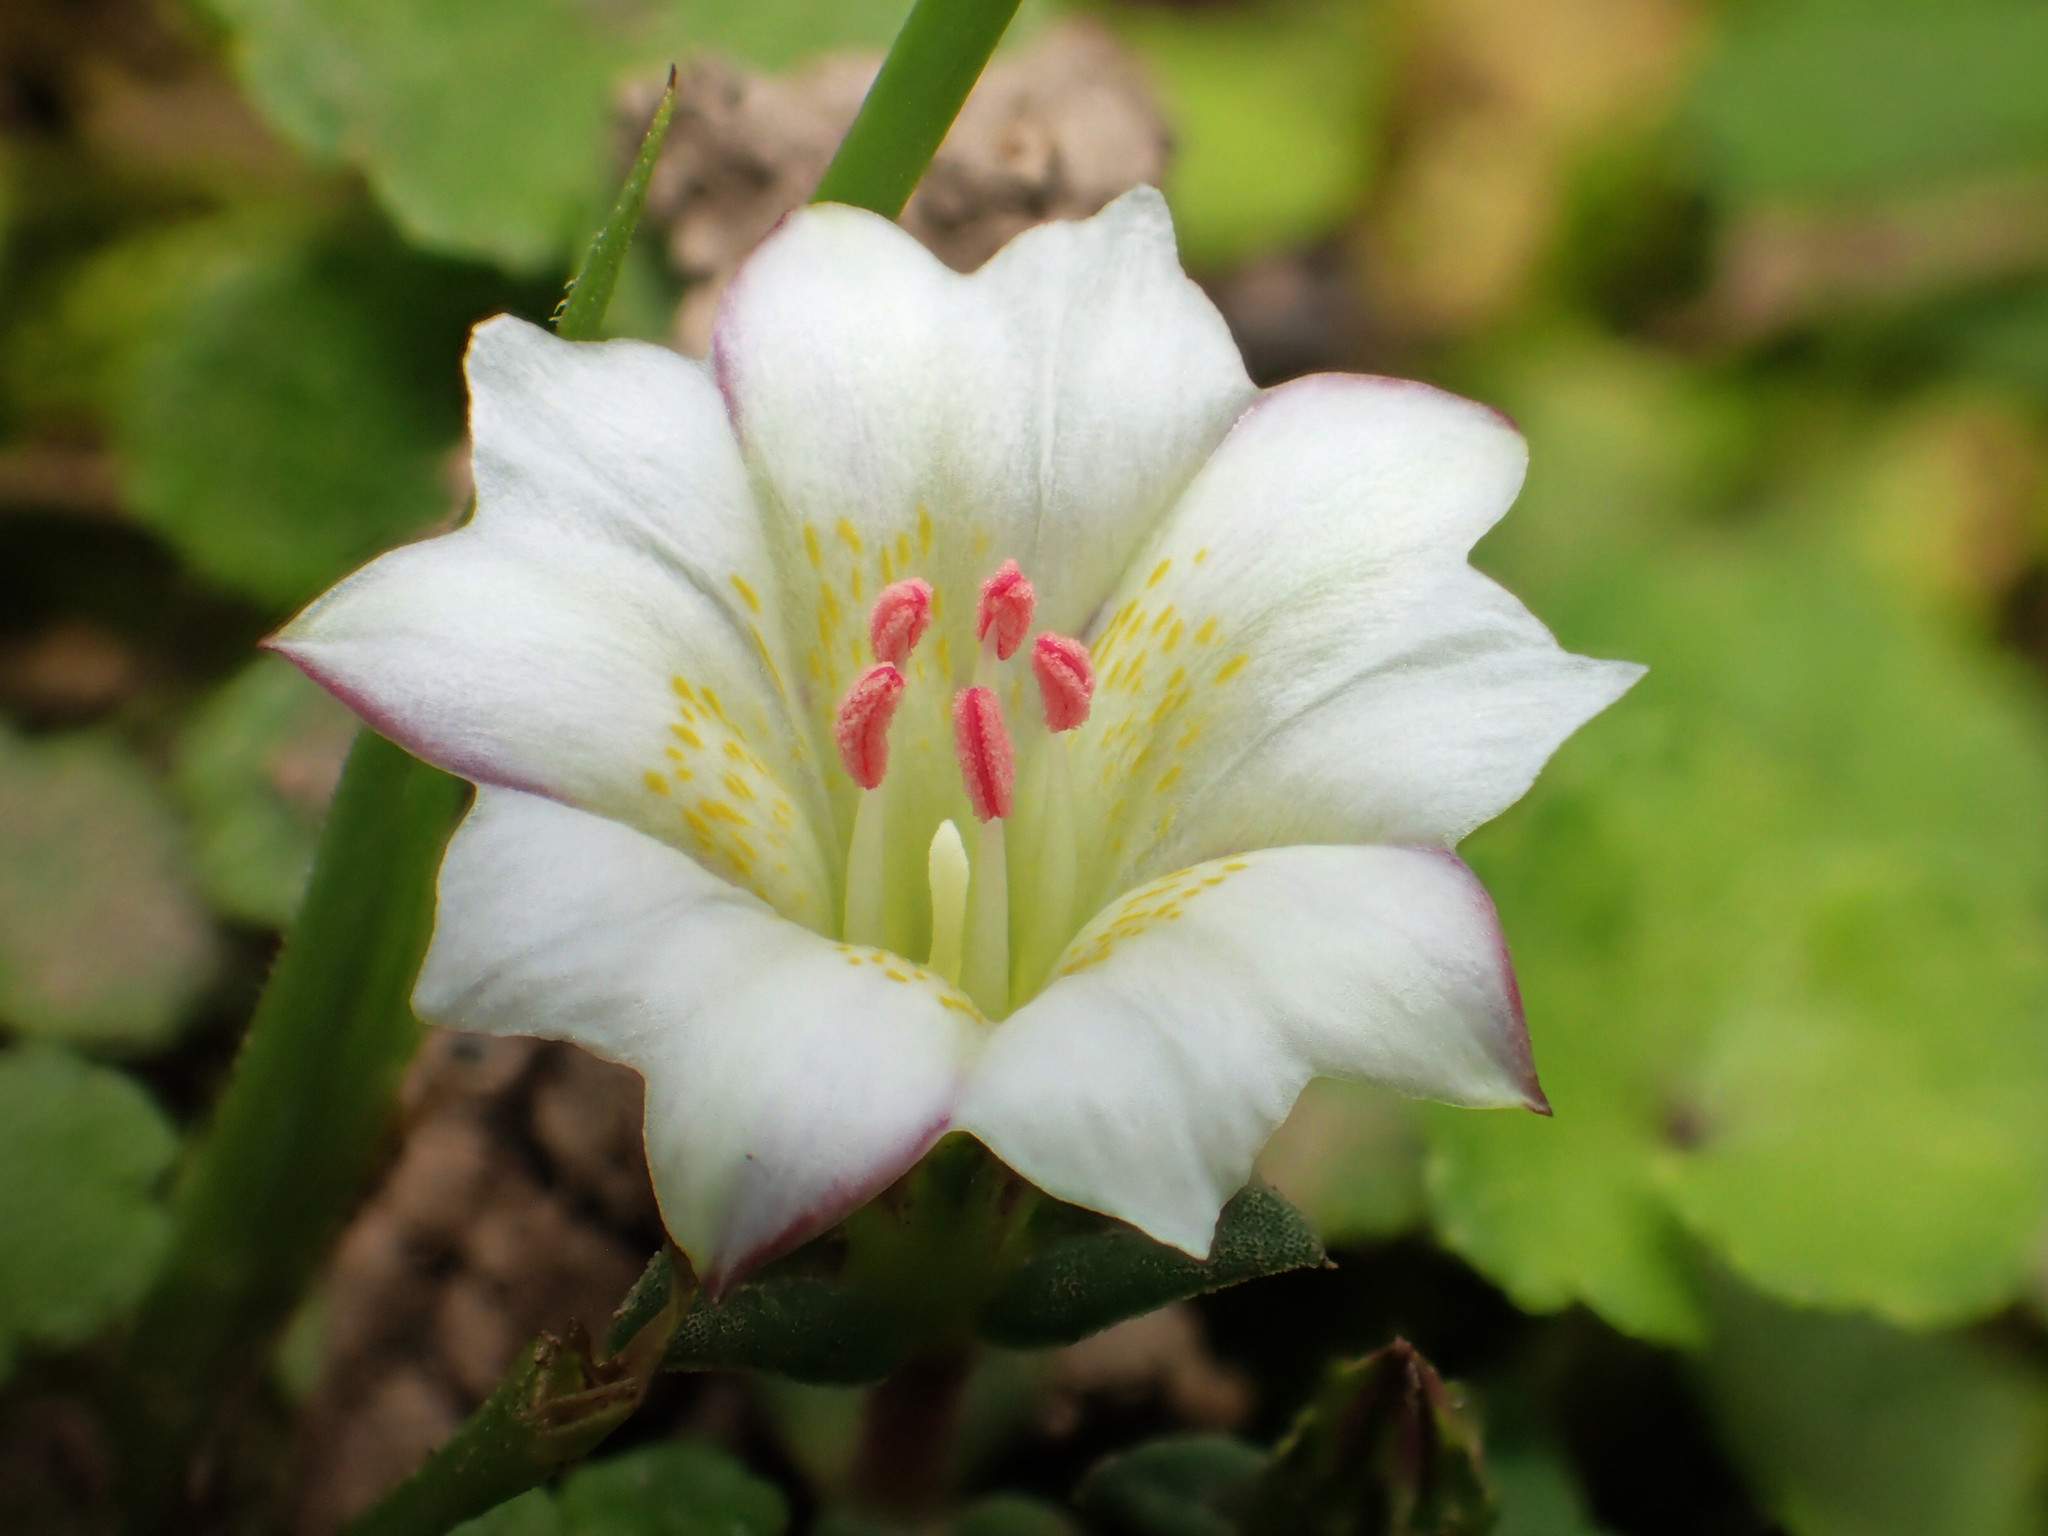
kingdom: Plantae
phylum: Tracheophyta
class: Magnoliopsida
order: Gentianales
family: Gentianaceae
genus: Gentiana
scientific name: Gentiana flavomaculata
